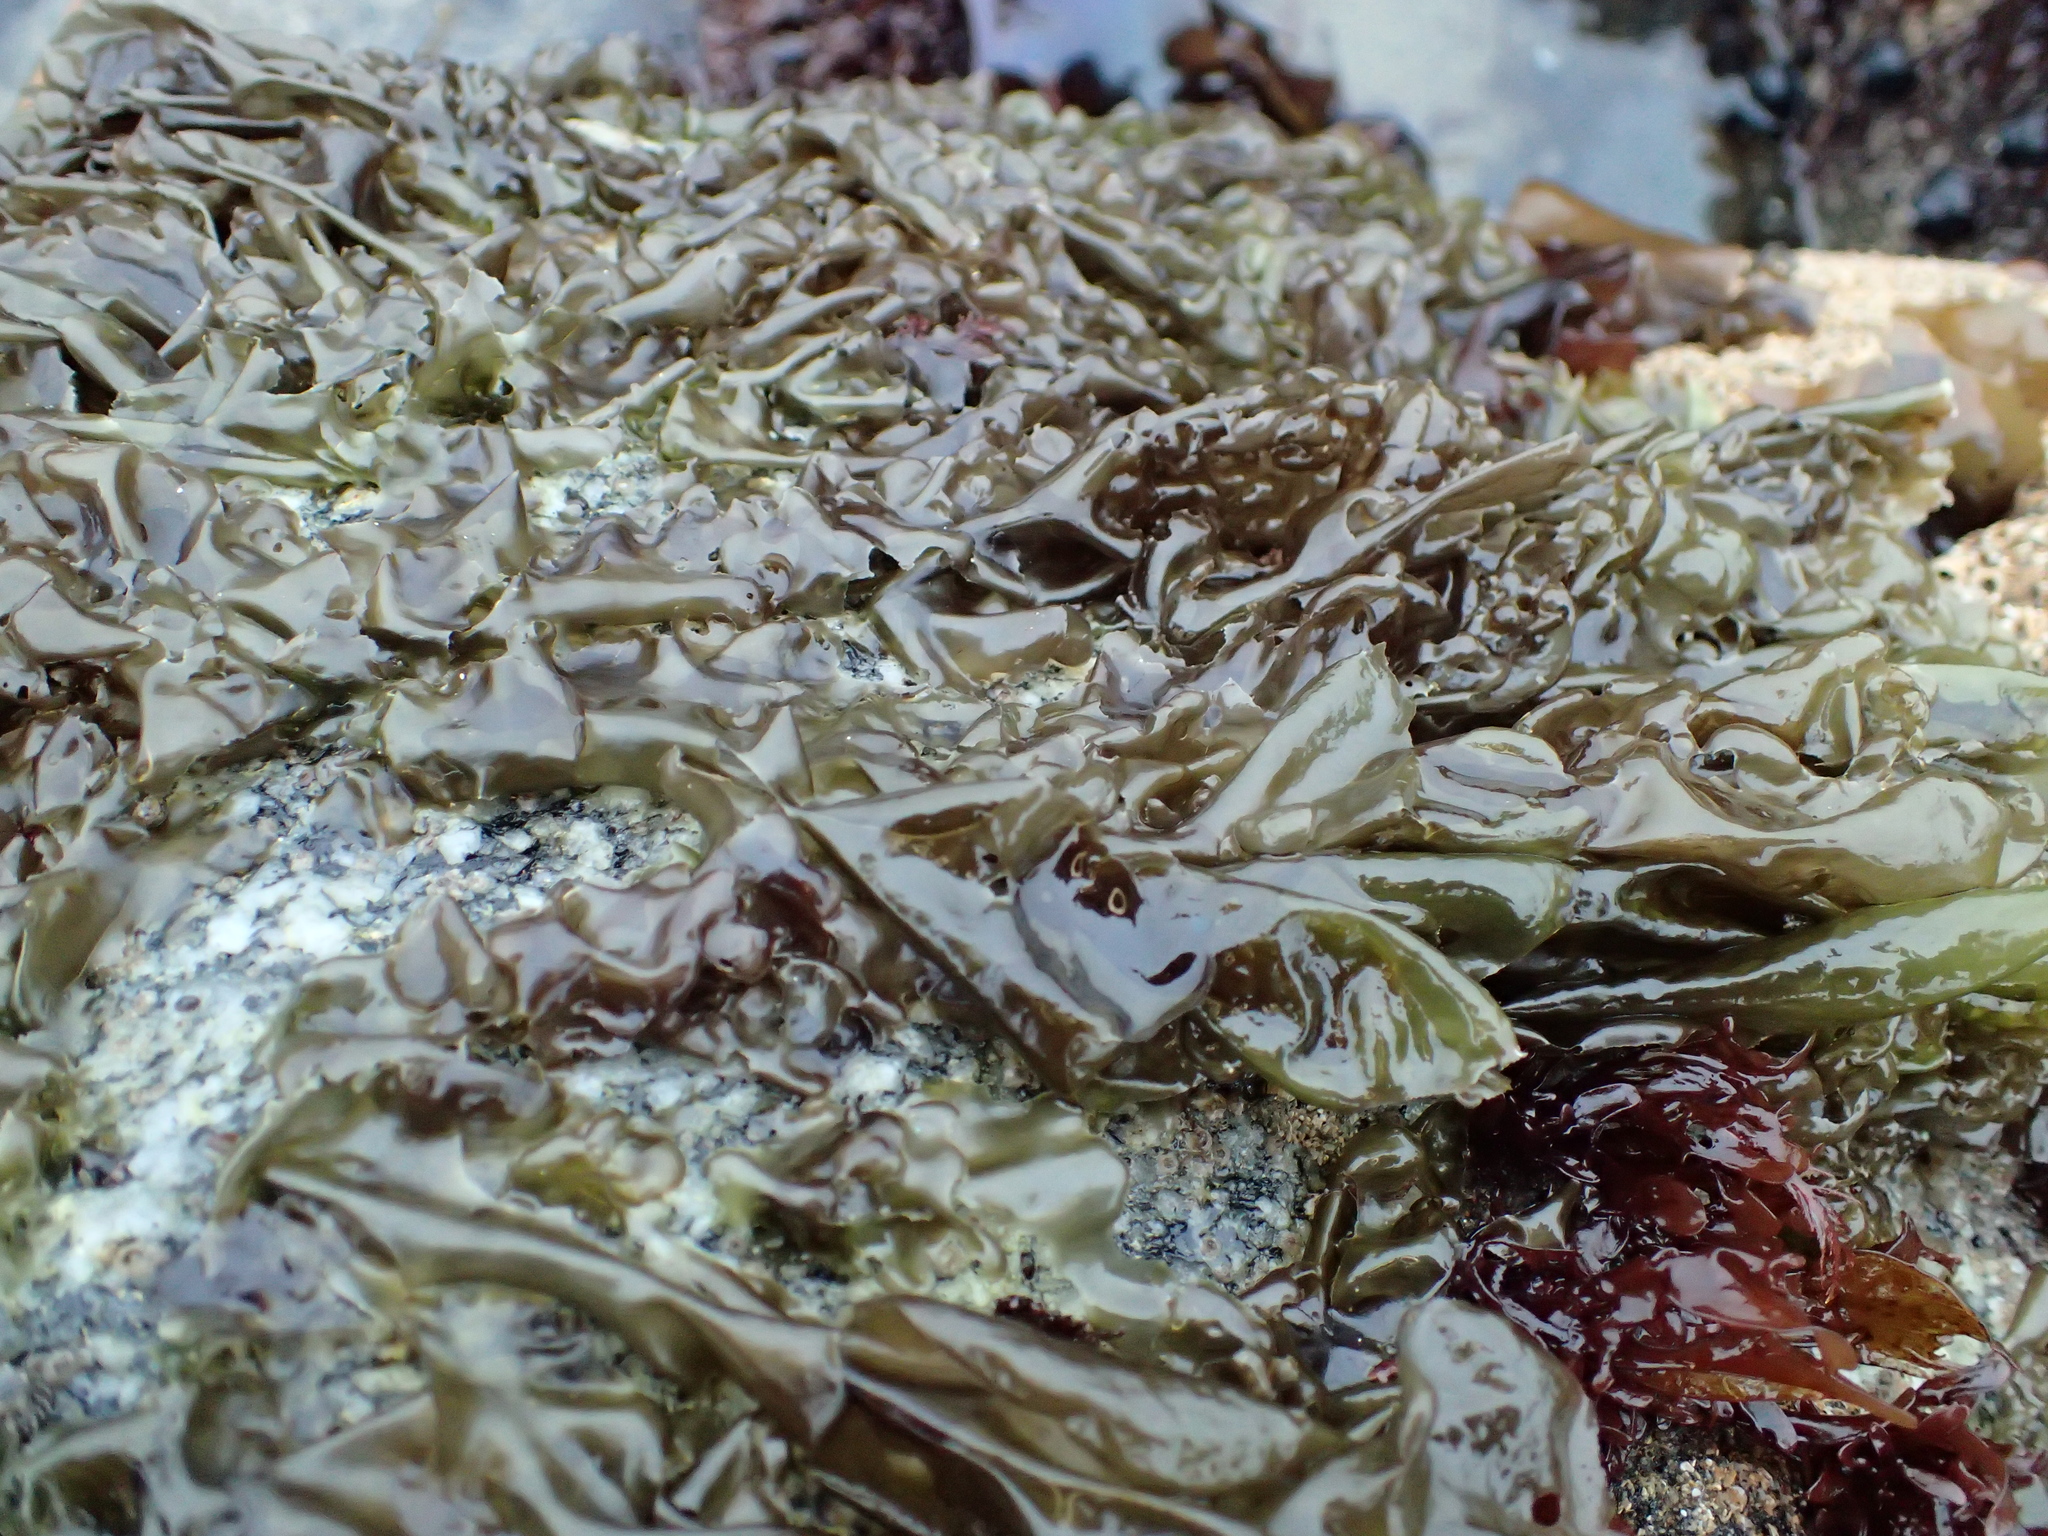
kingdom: Plantae
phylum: Rhodophyta
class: Bangiophyceae
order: Bangiales
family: Bangiaceae
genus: Neoporphyra
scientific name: Neoporphyra perforata
